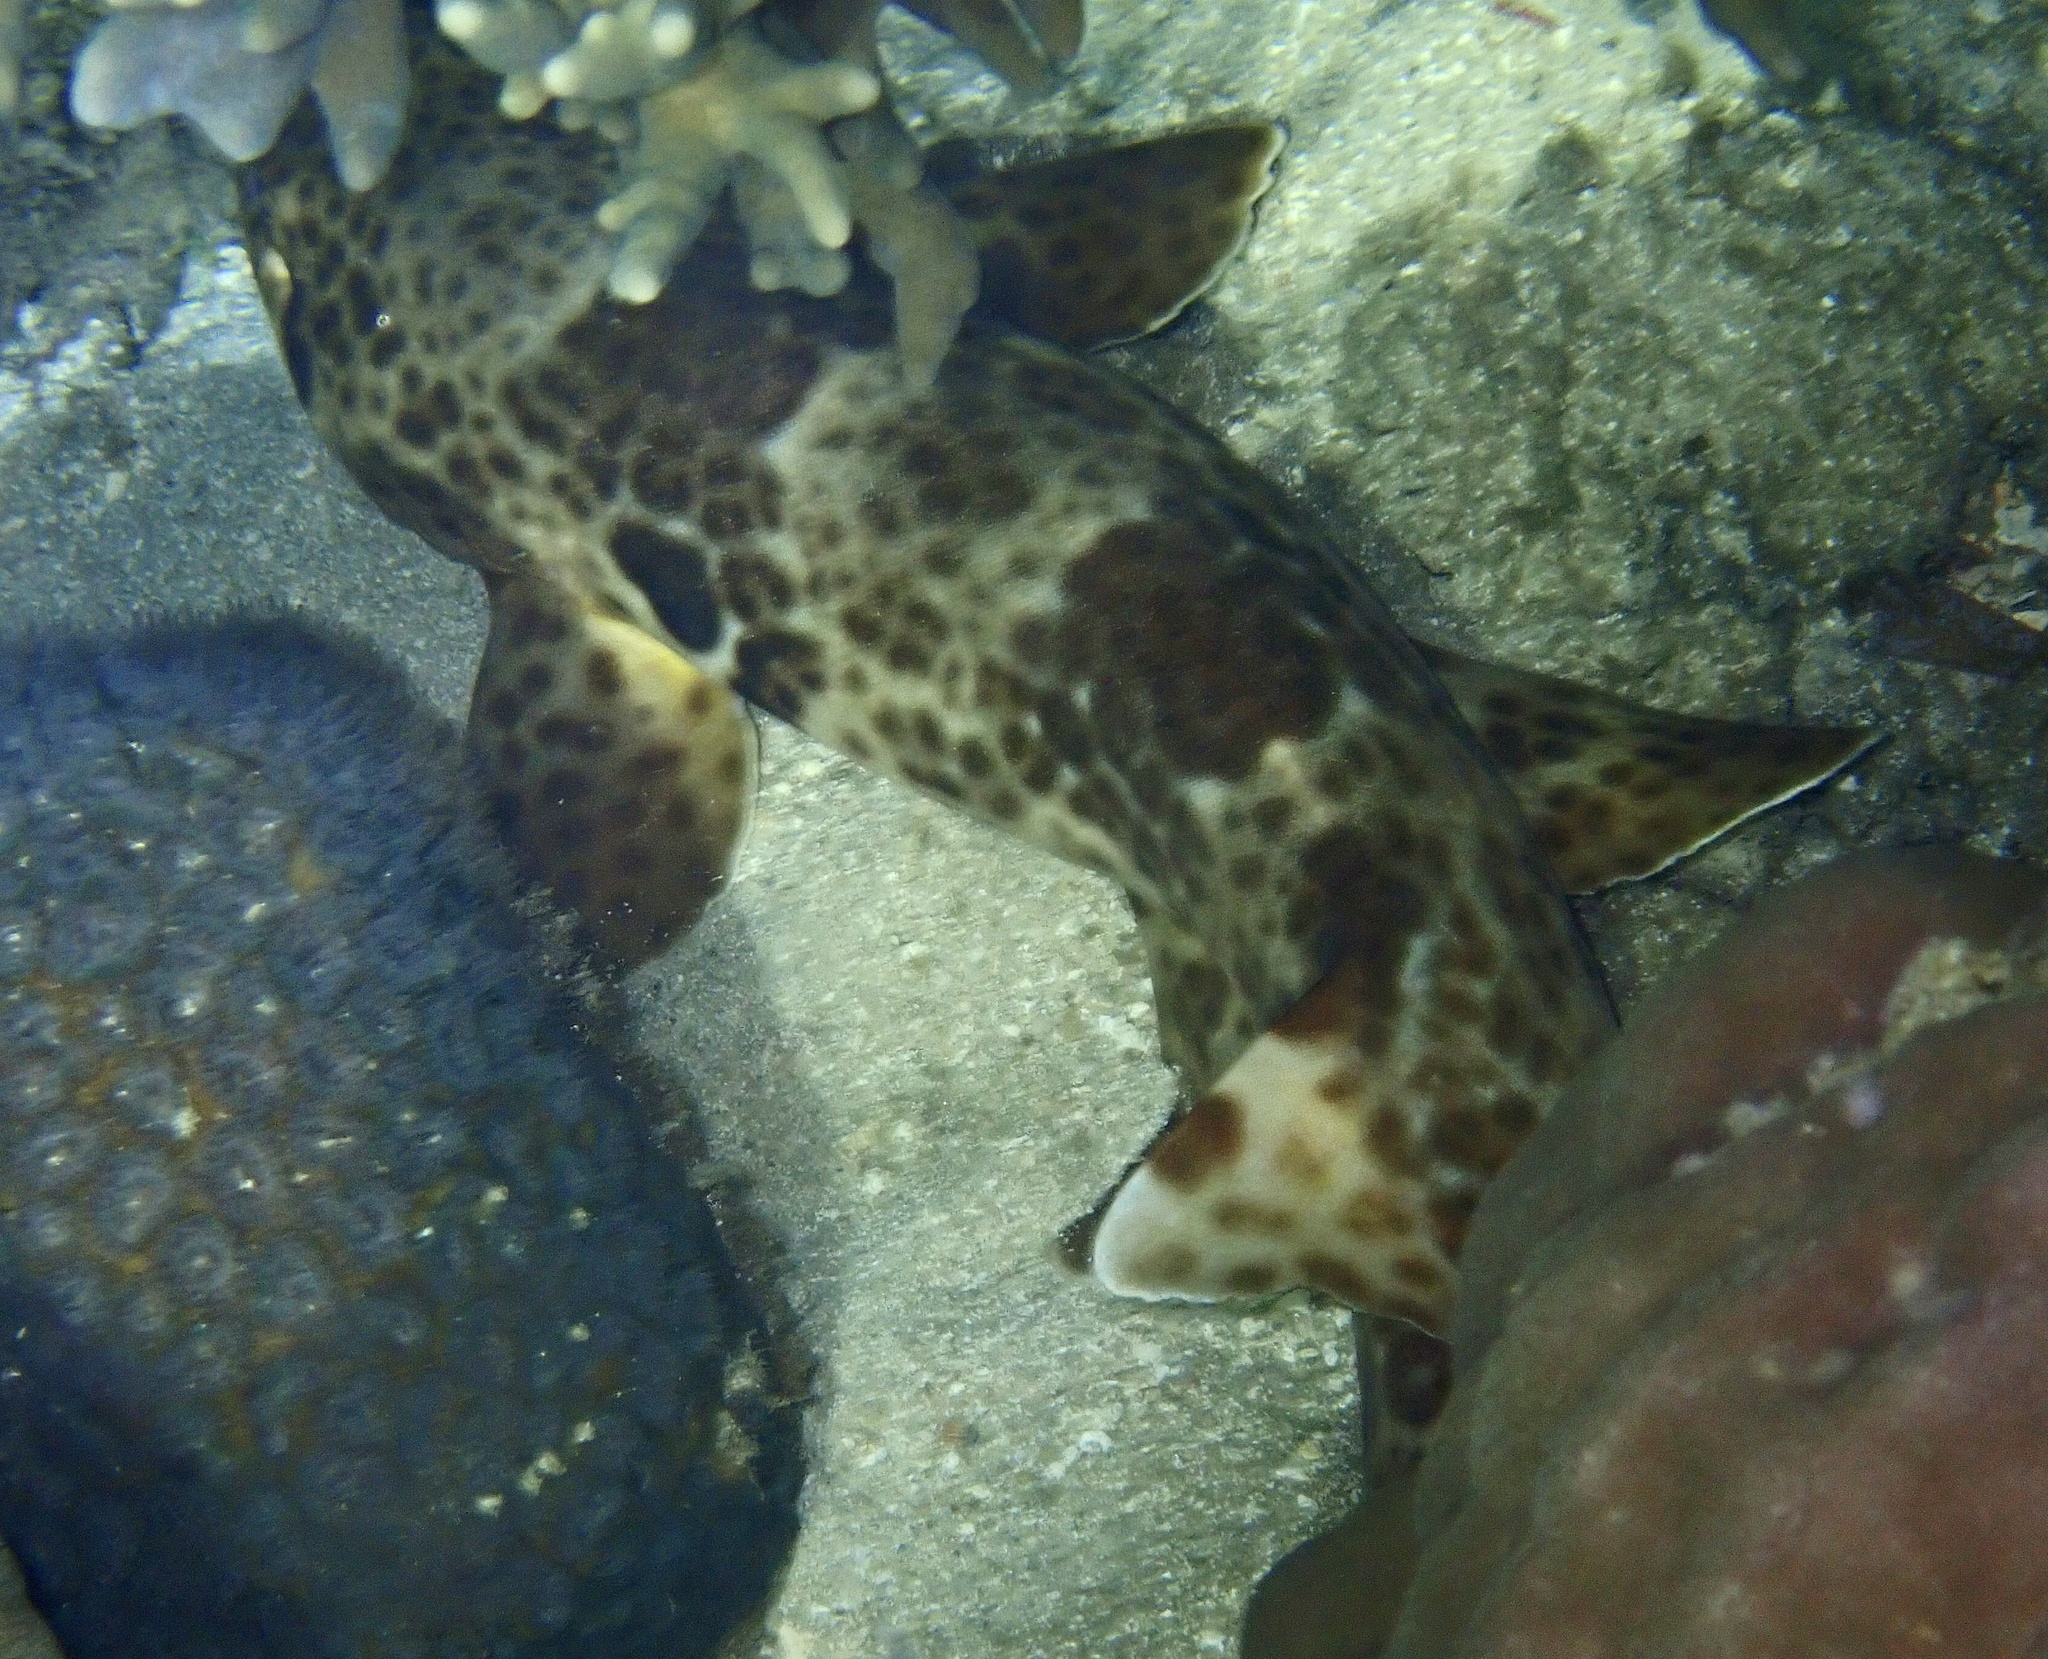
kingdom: Animalia
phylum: Chordata
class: Elasmobranchii
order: Orectolobiformes
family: Hemiscylliidae
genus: Hemiscyllium
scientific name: Hemiscyllium freycineti
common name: Indonesian speckled carpetshark
